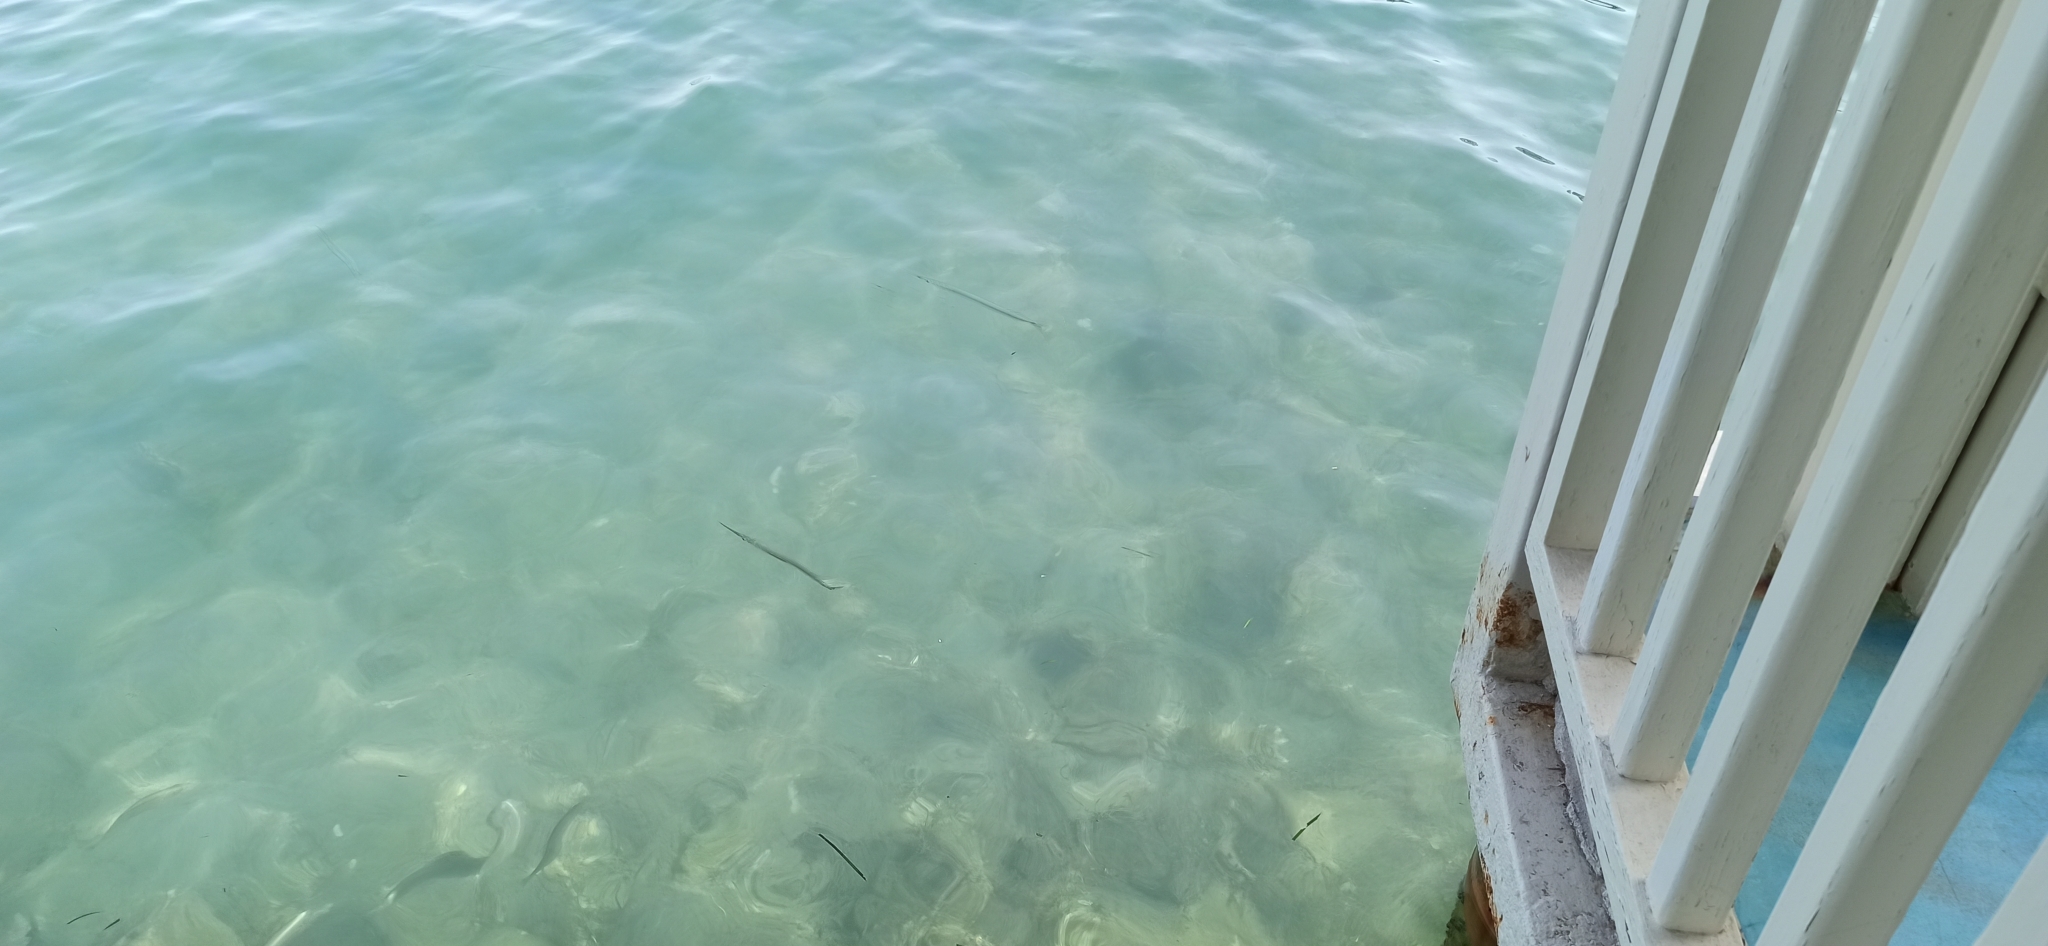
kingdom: Animalia
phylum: Chordata
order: Beloniformes
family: Belonidae
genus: Belone
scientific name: Belone belone
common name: Garfish
